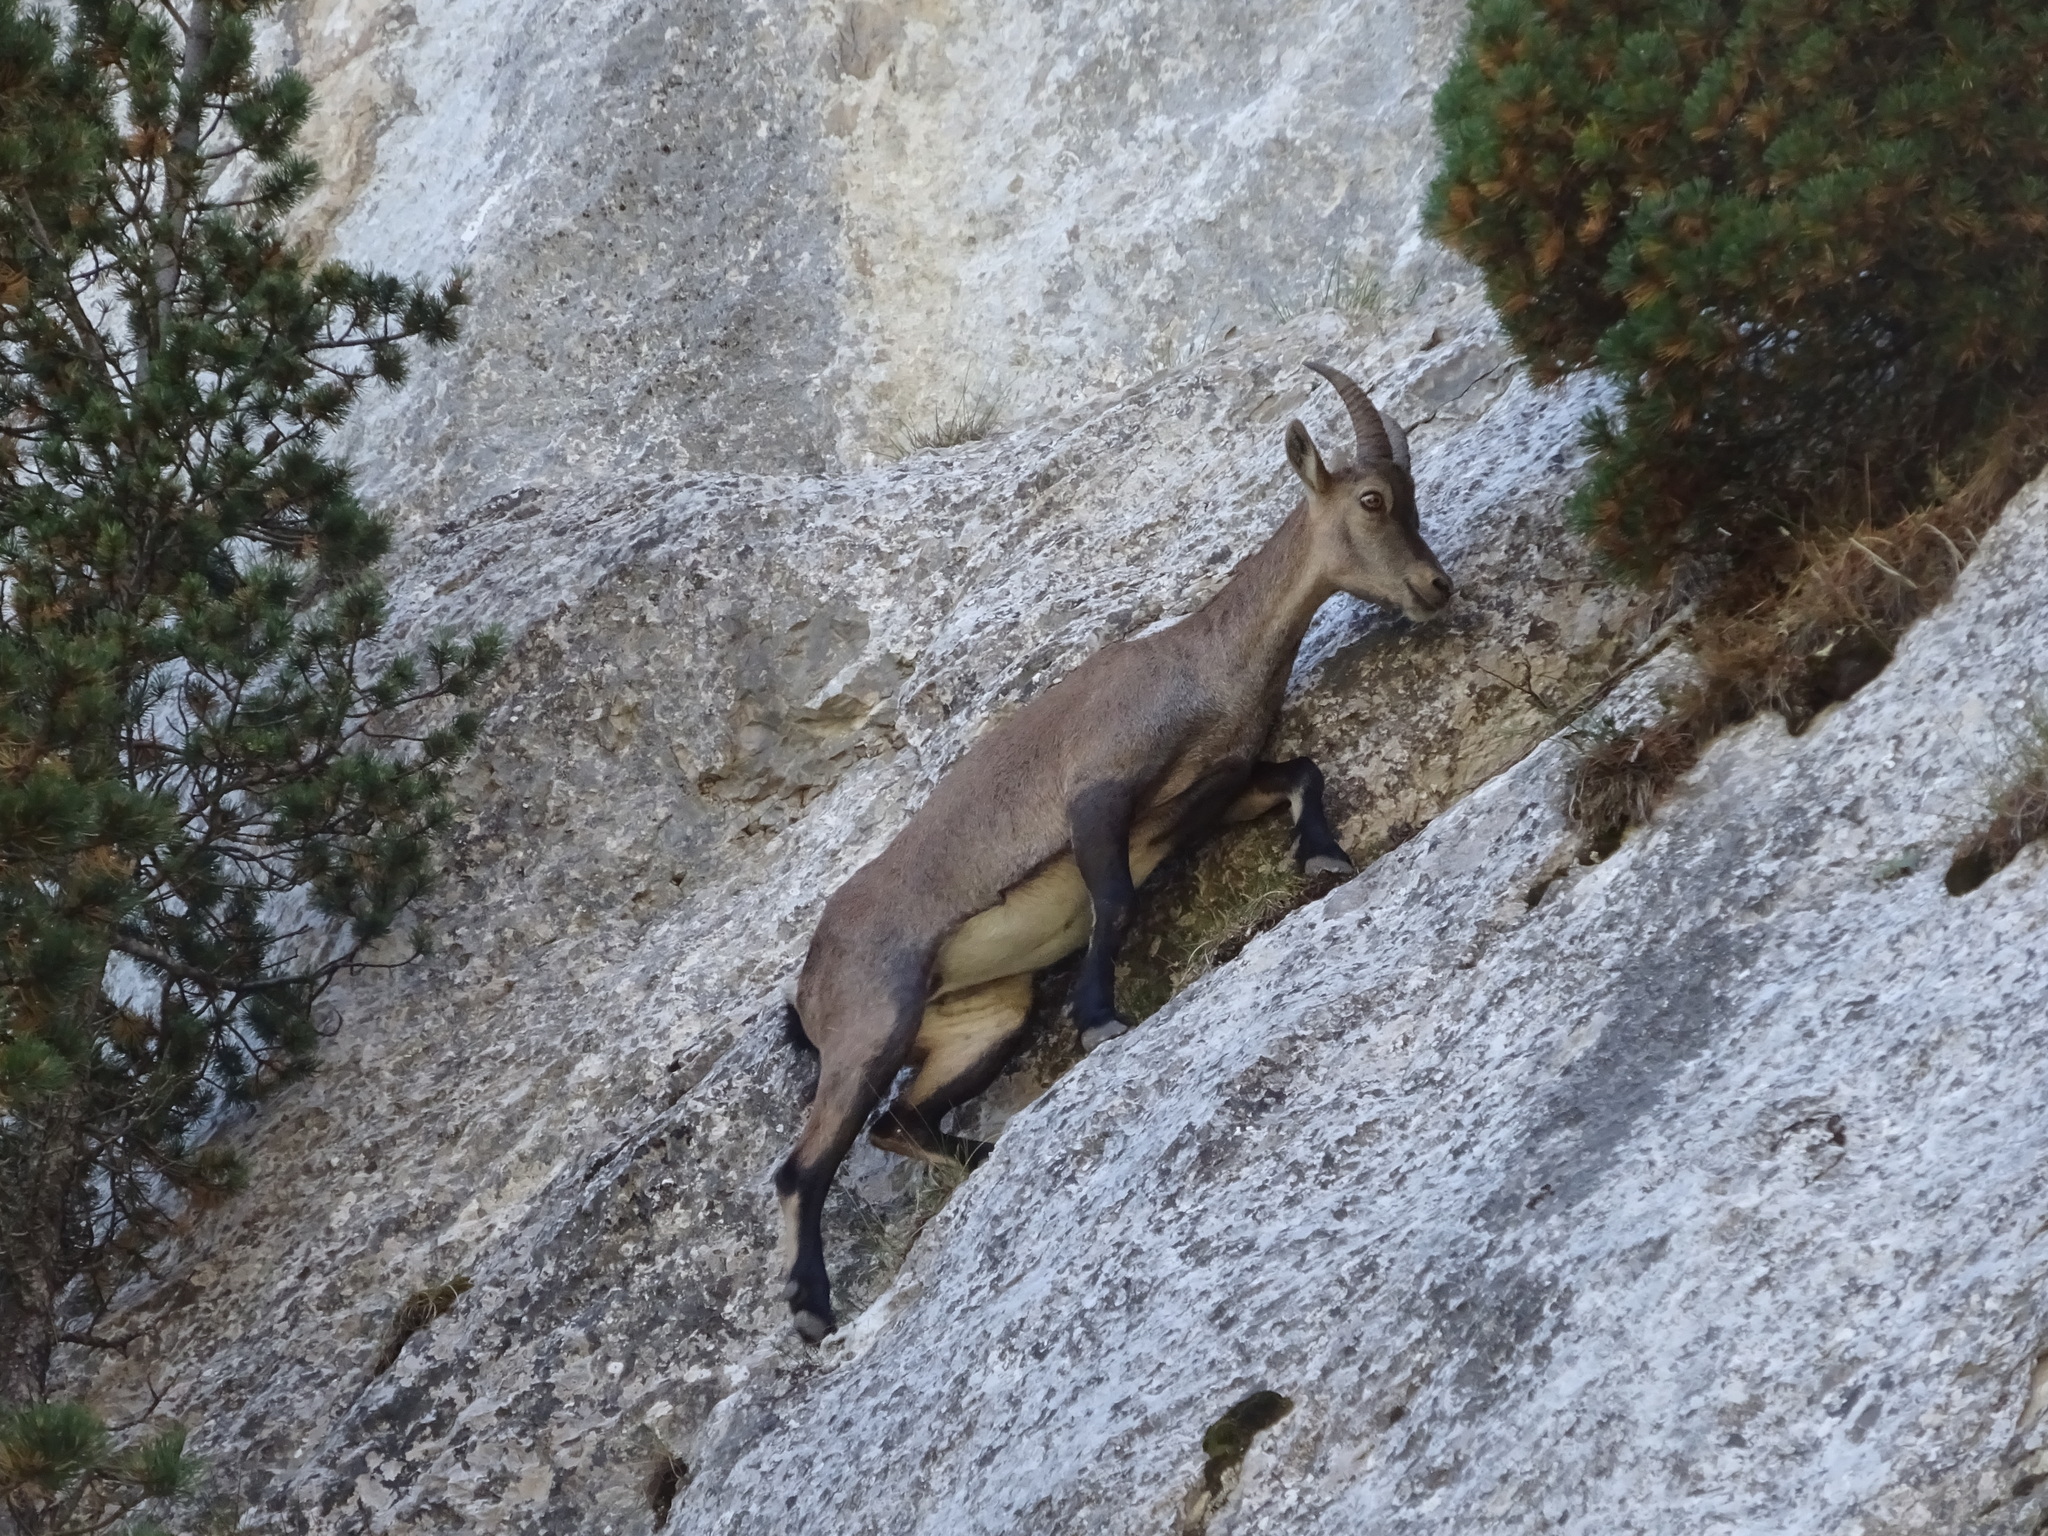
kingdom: Animalia
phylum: Chordata
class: Mammalia
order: Artiodactyla
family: Bovidae
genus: Capra
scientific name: Capra ibex
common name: Alpine ibex
